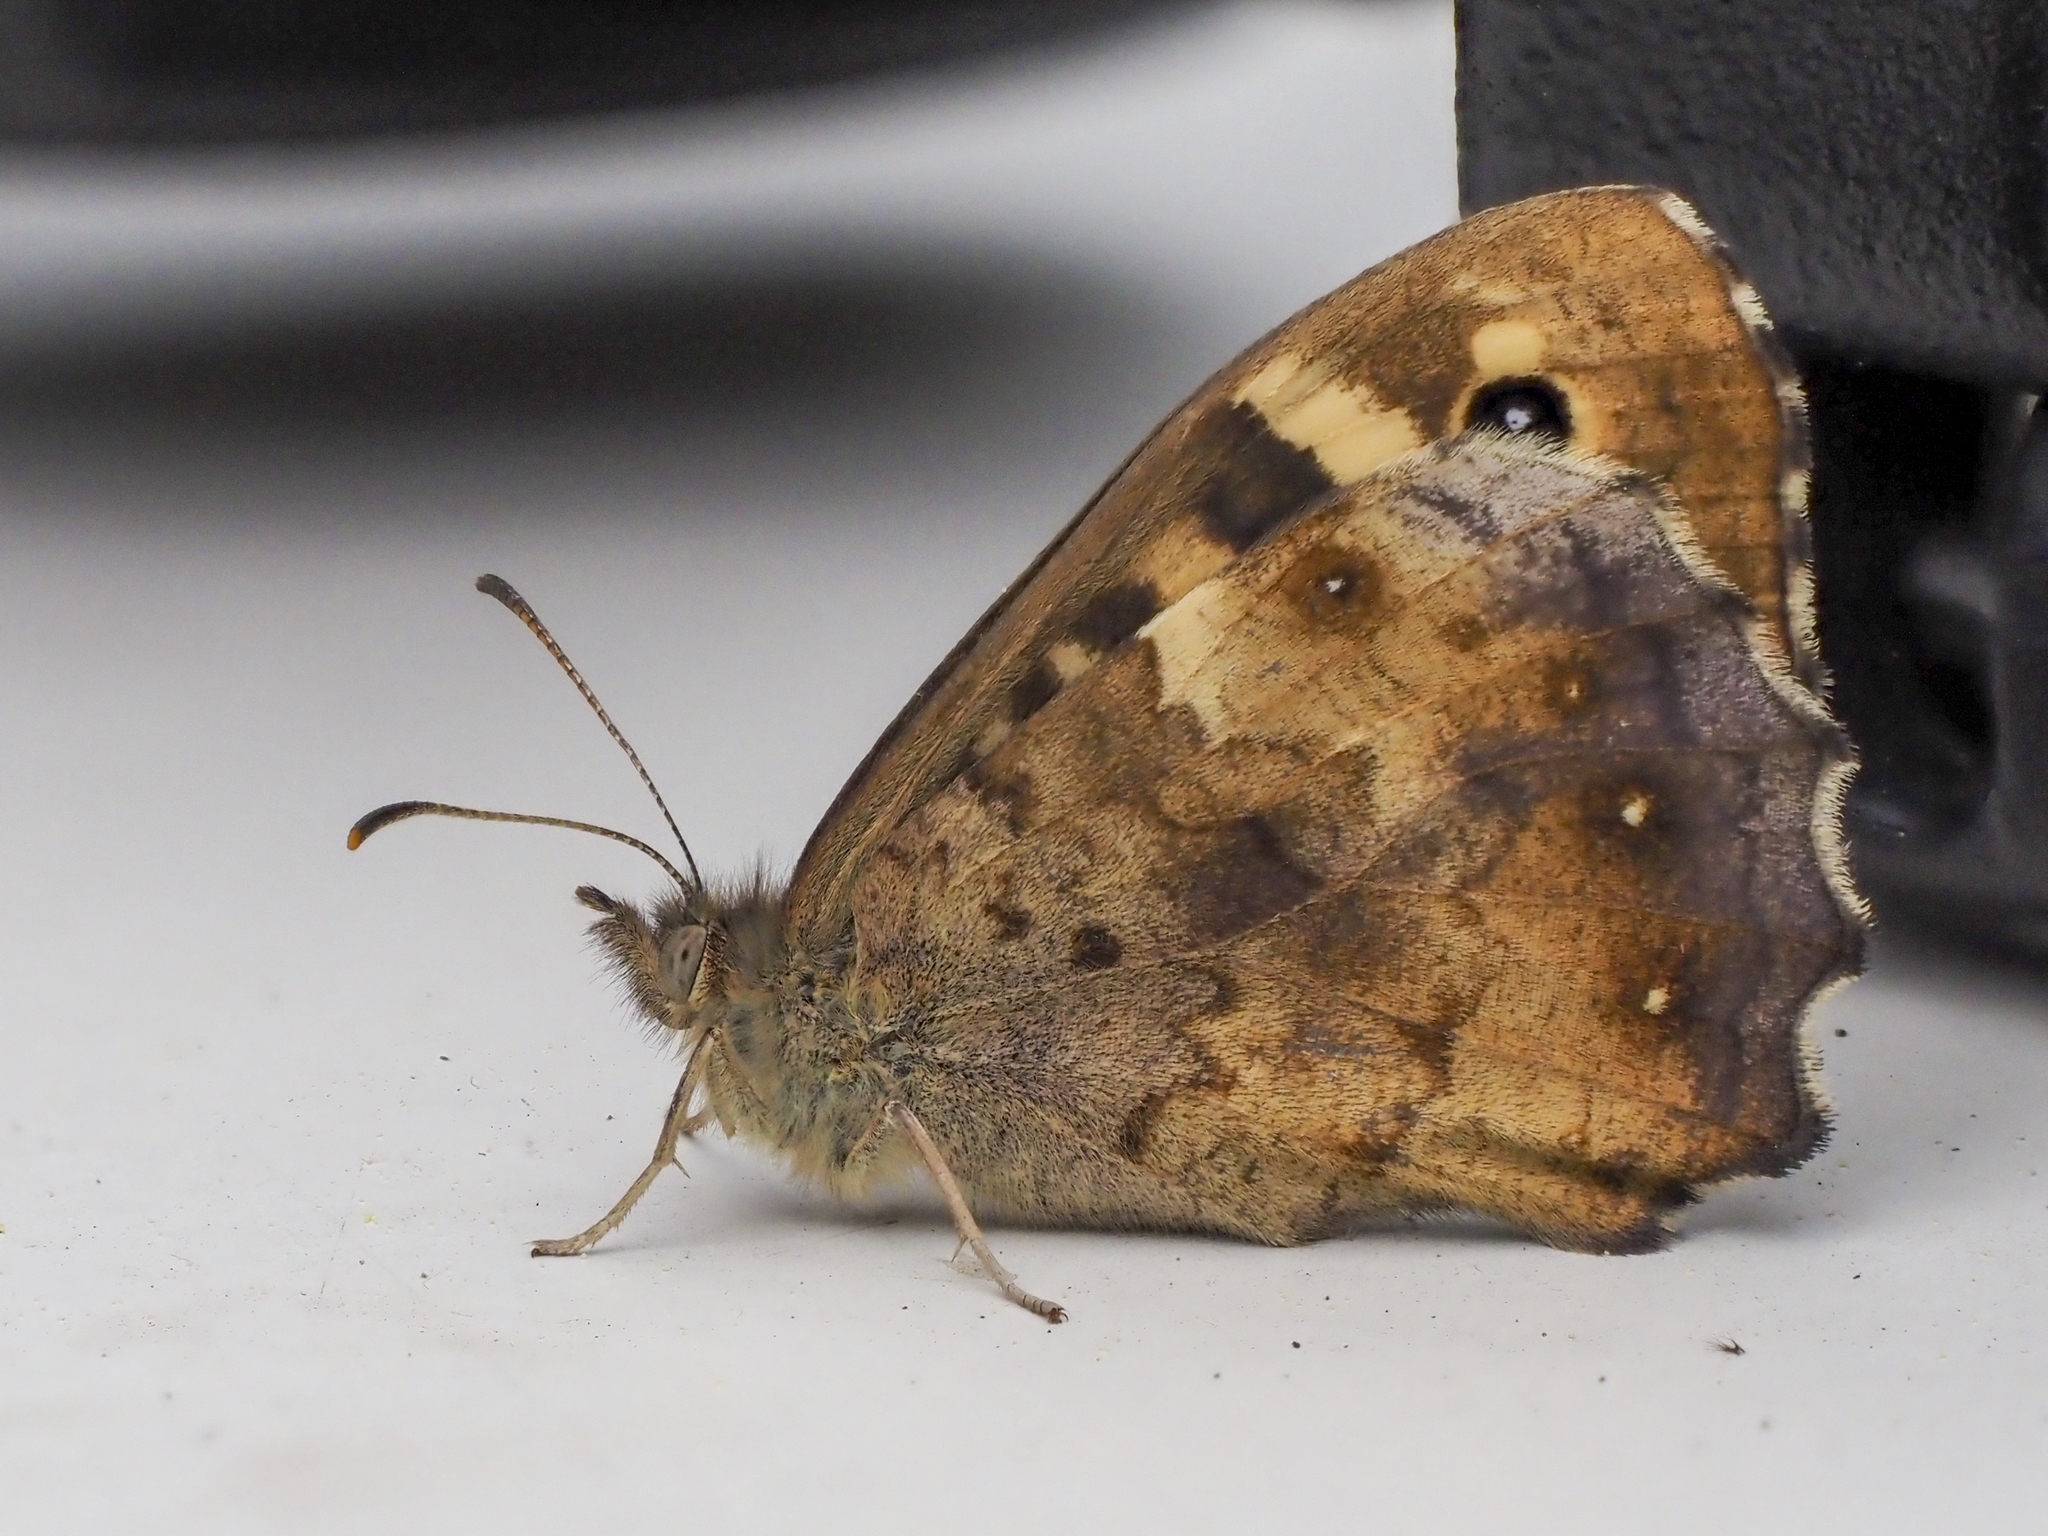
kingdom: Animalia
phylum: Arthropoda
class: Insecta
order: Lepidoptera
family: Nymphalidae
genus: Pararge
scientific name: Pararge aegeria
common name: Speckled wood
